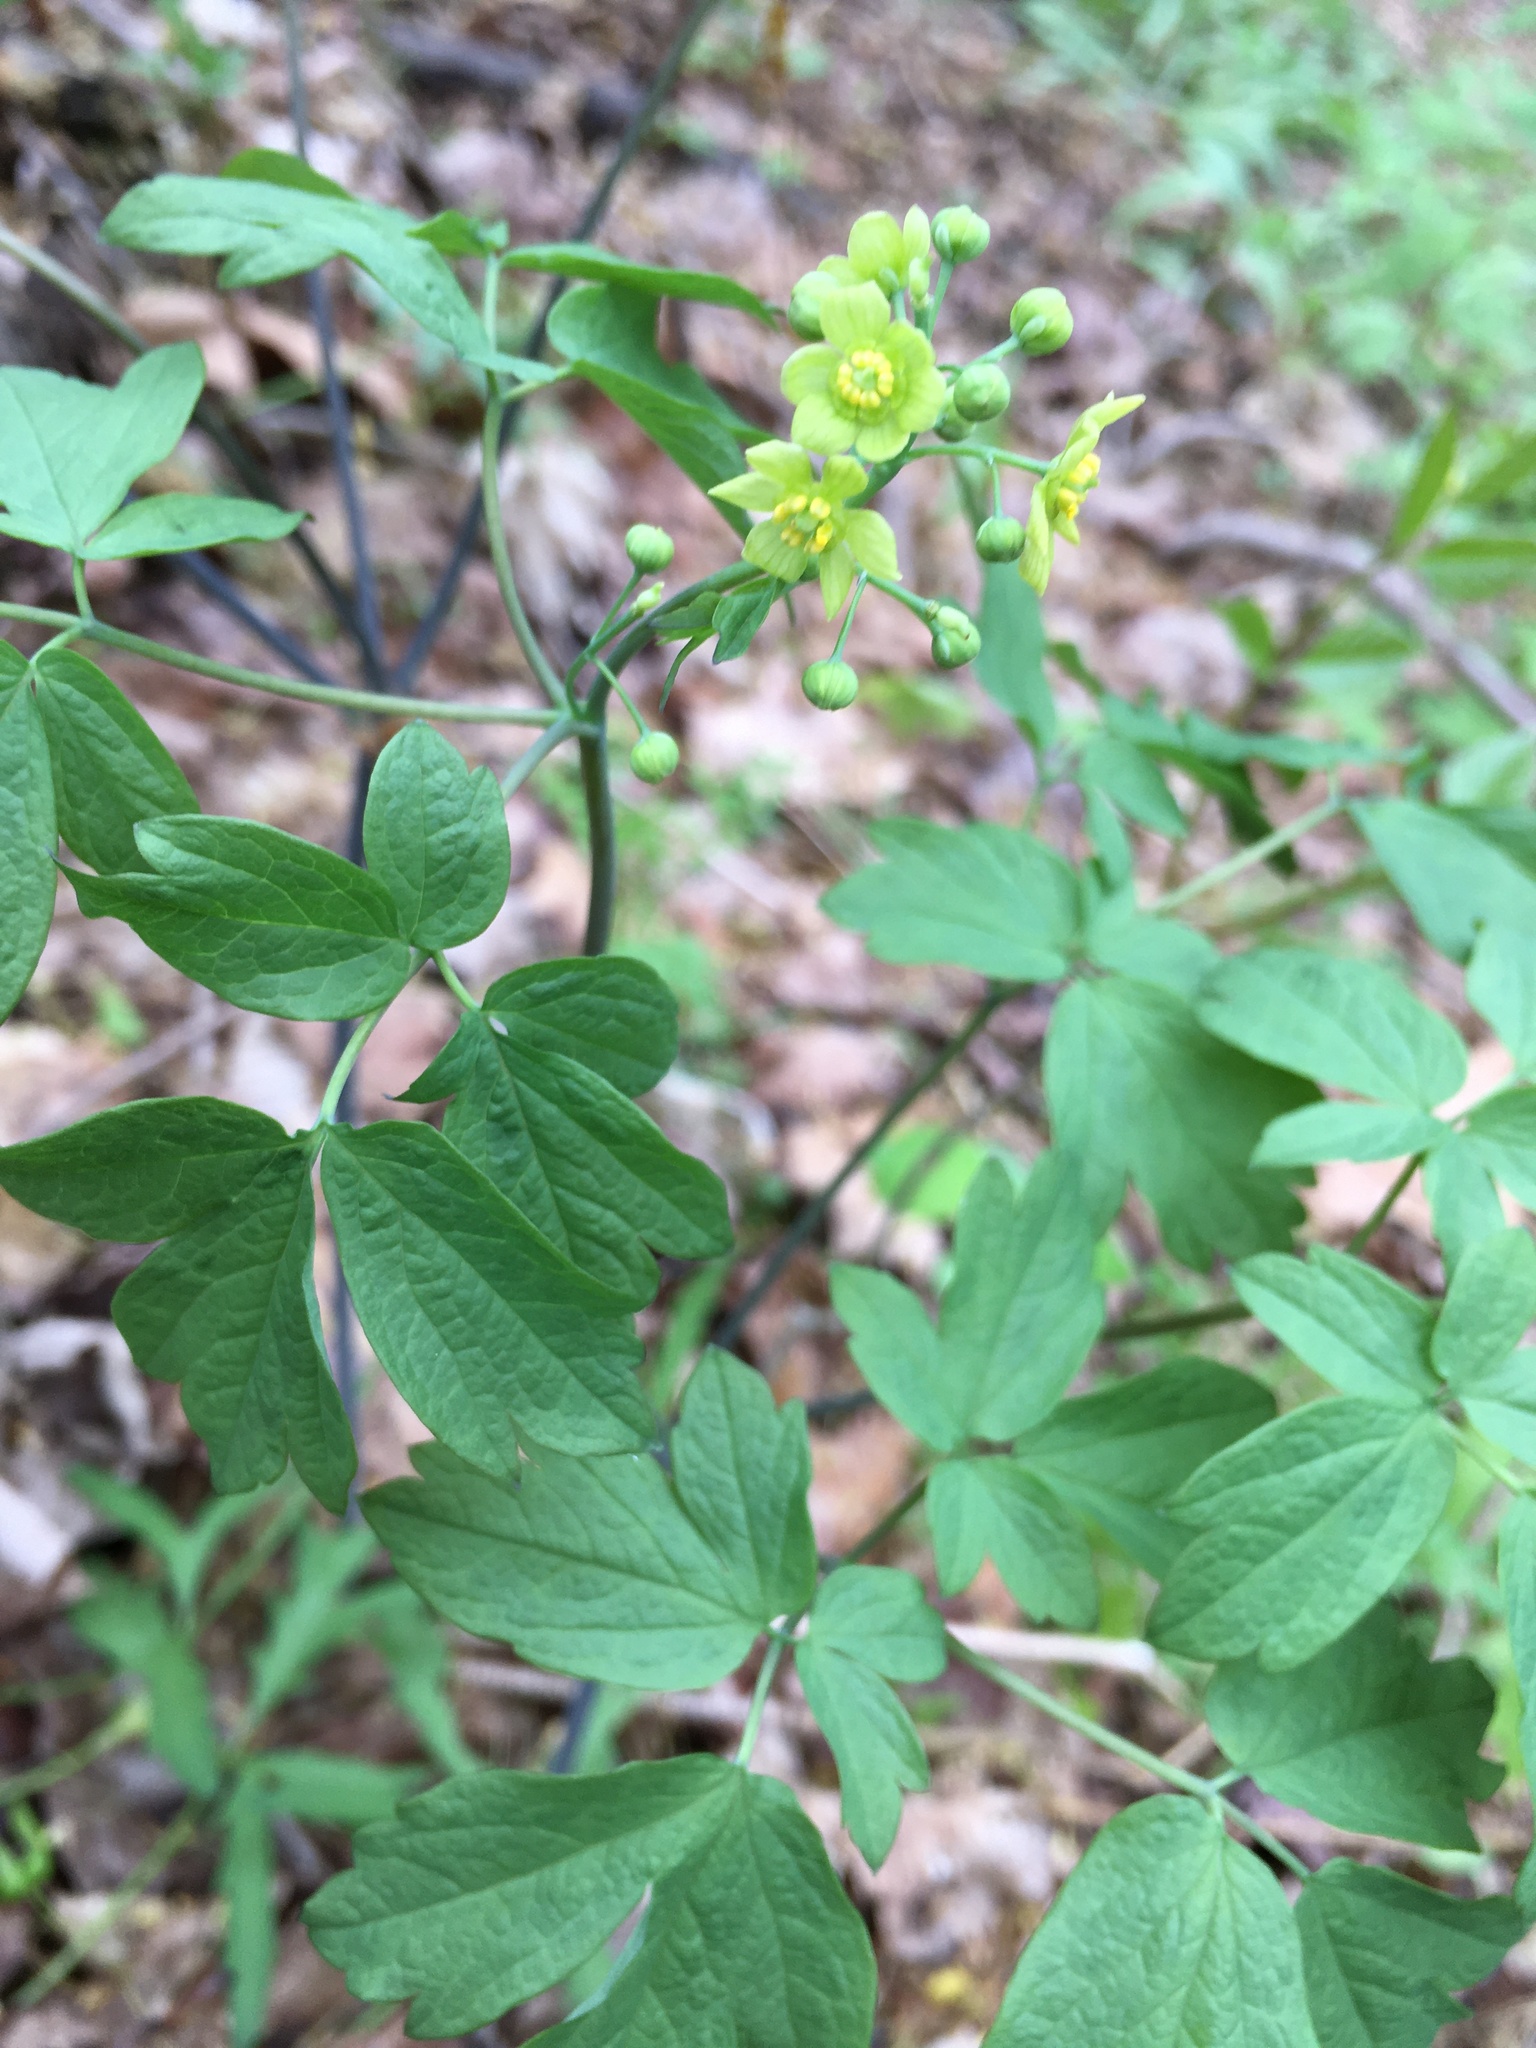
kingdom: Plantae
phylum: Tracheophyta
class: Magnoliopsida
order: Ranunculales
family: Berberidaceae
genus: Caulophyllum
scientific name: Caulophyllum thalictroides
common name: Blue cohosh
